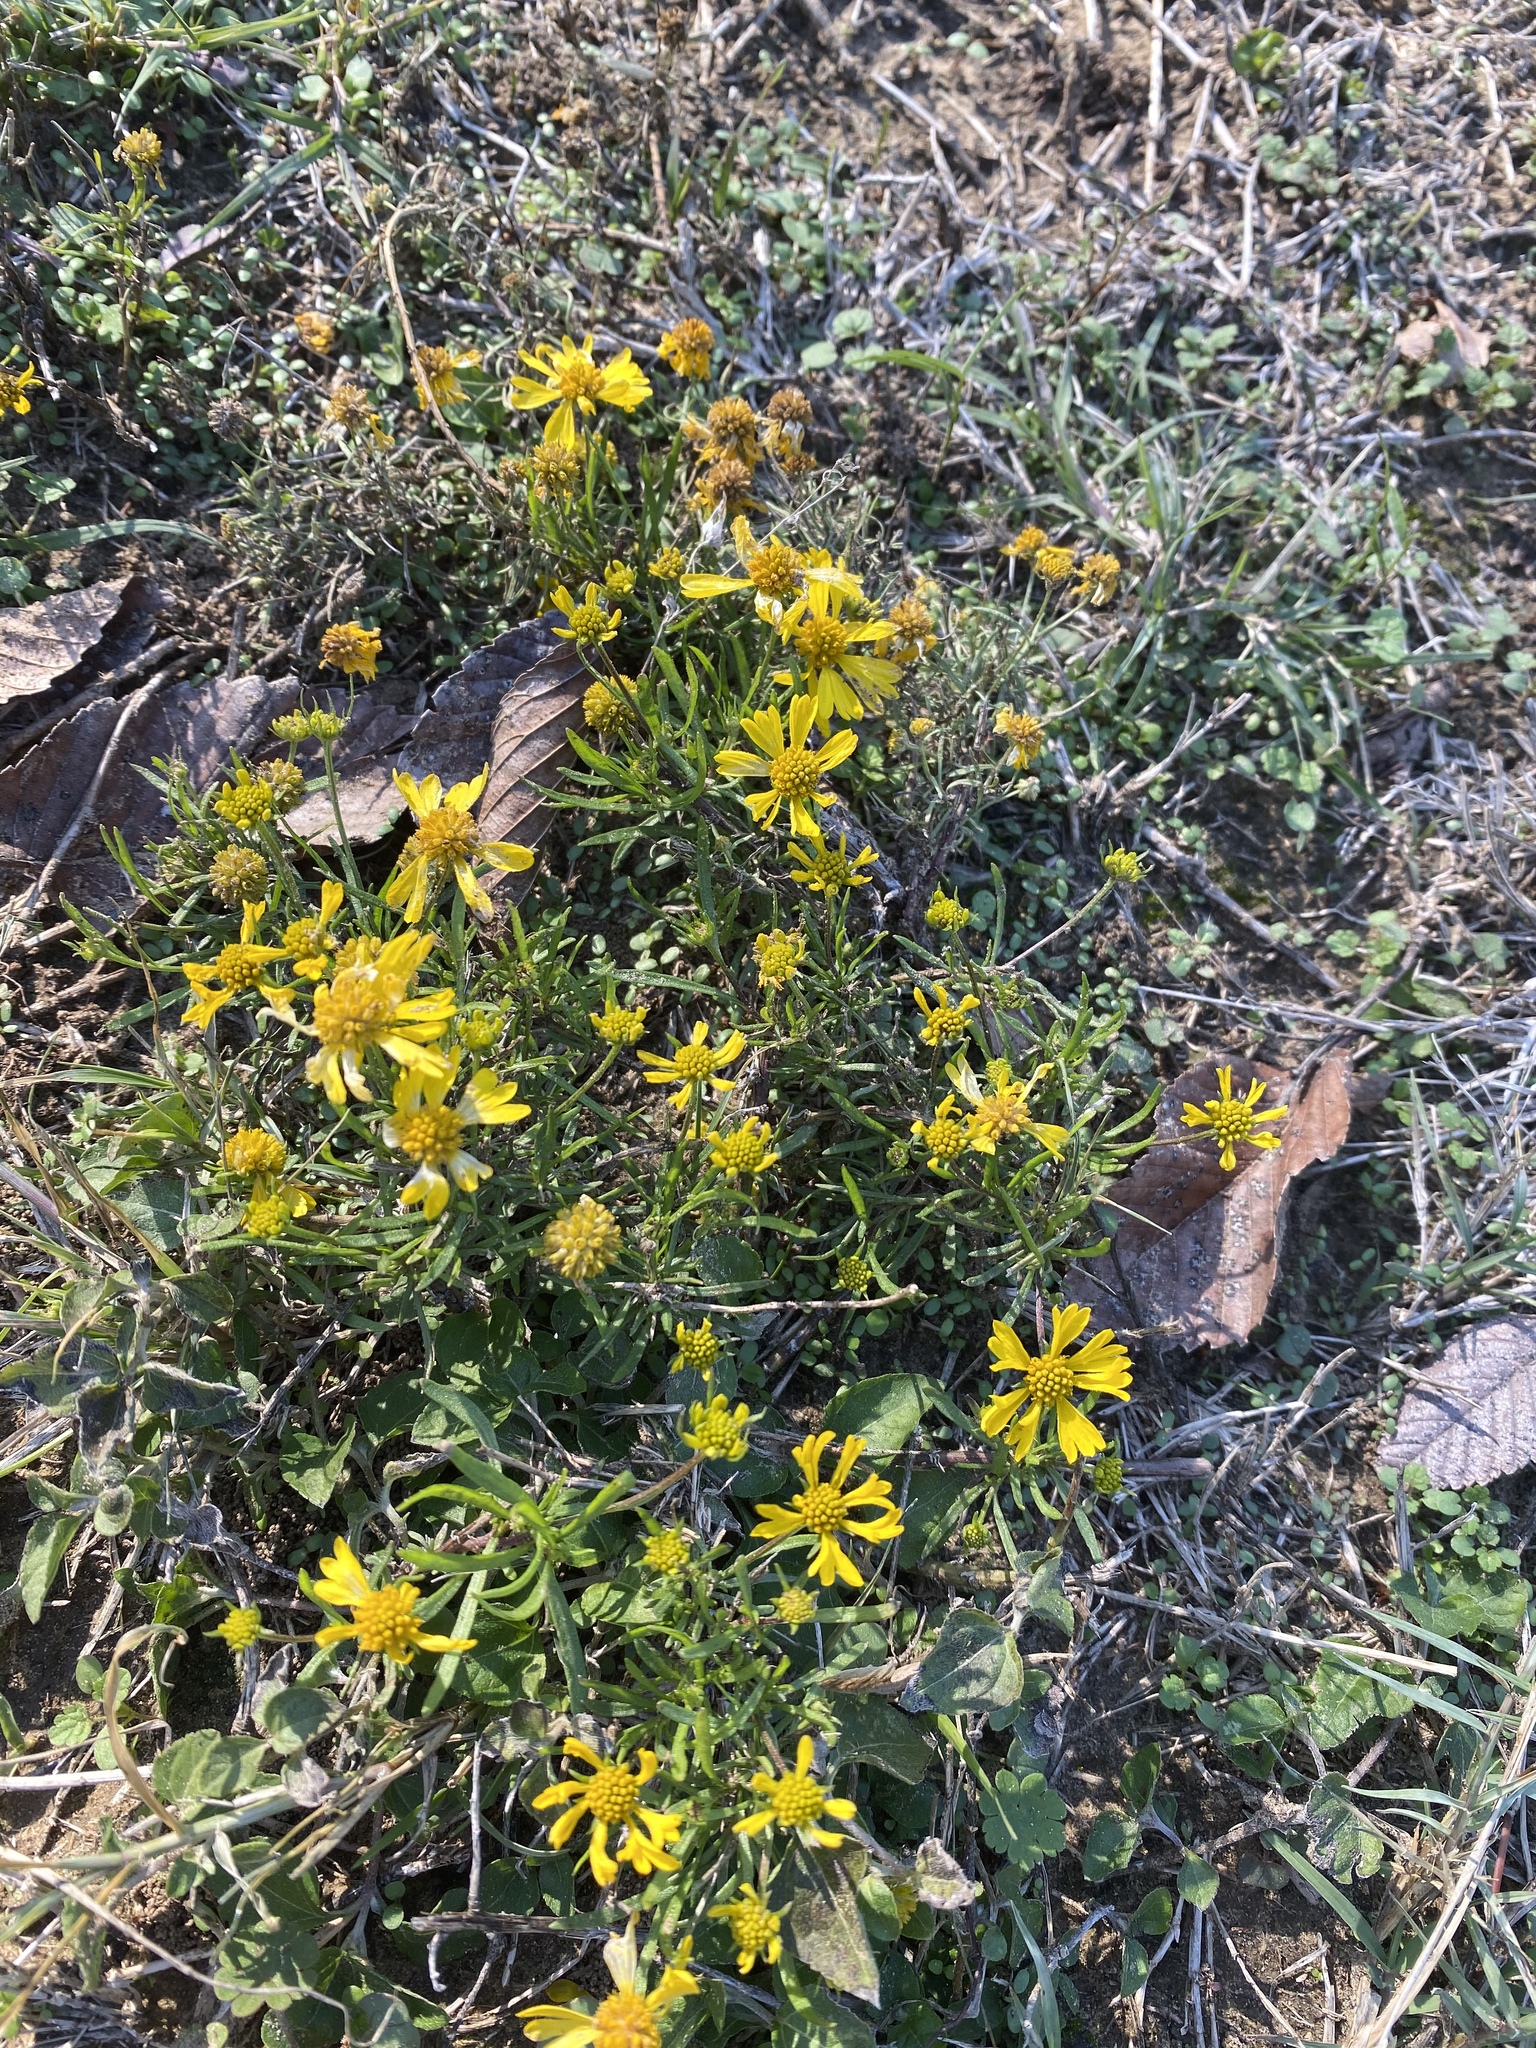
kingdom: Plantae
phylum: Tracheophyta
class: Magnoliopsida
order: Asterales
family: Asteraceae
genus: Helenium
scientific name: Helenium amarum
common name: Bitter sneezeweed
